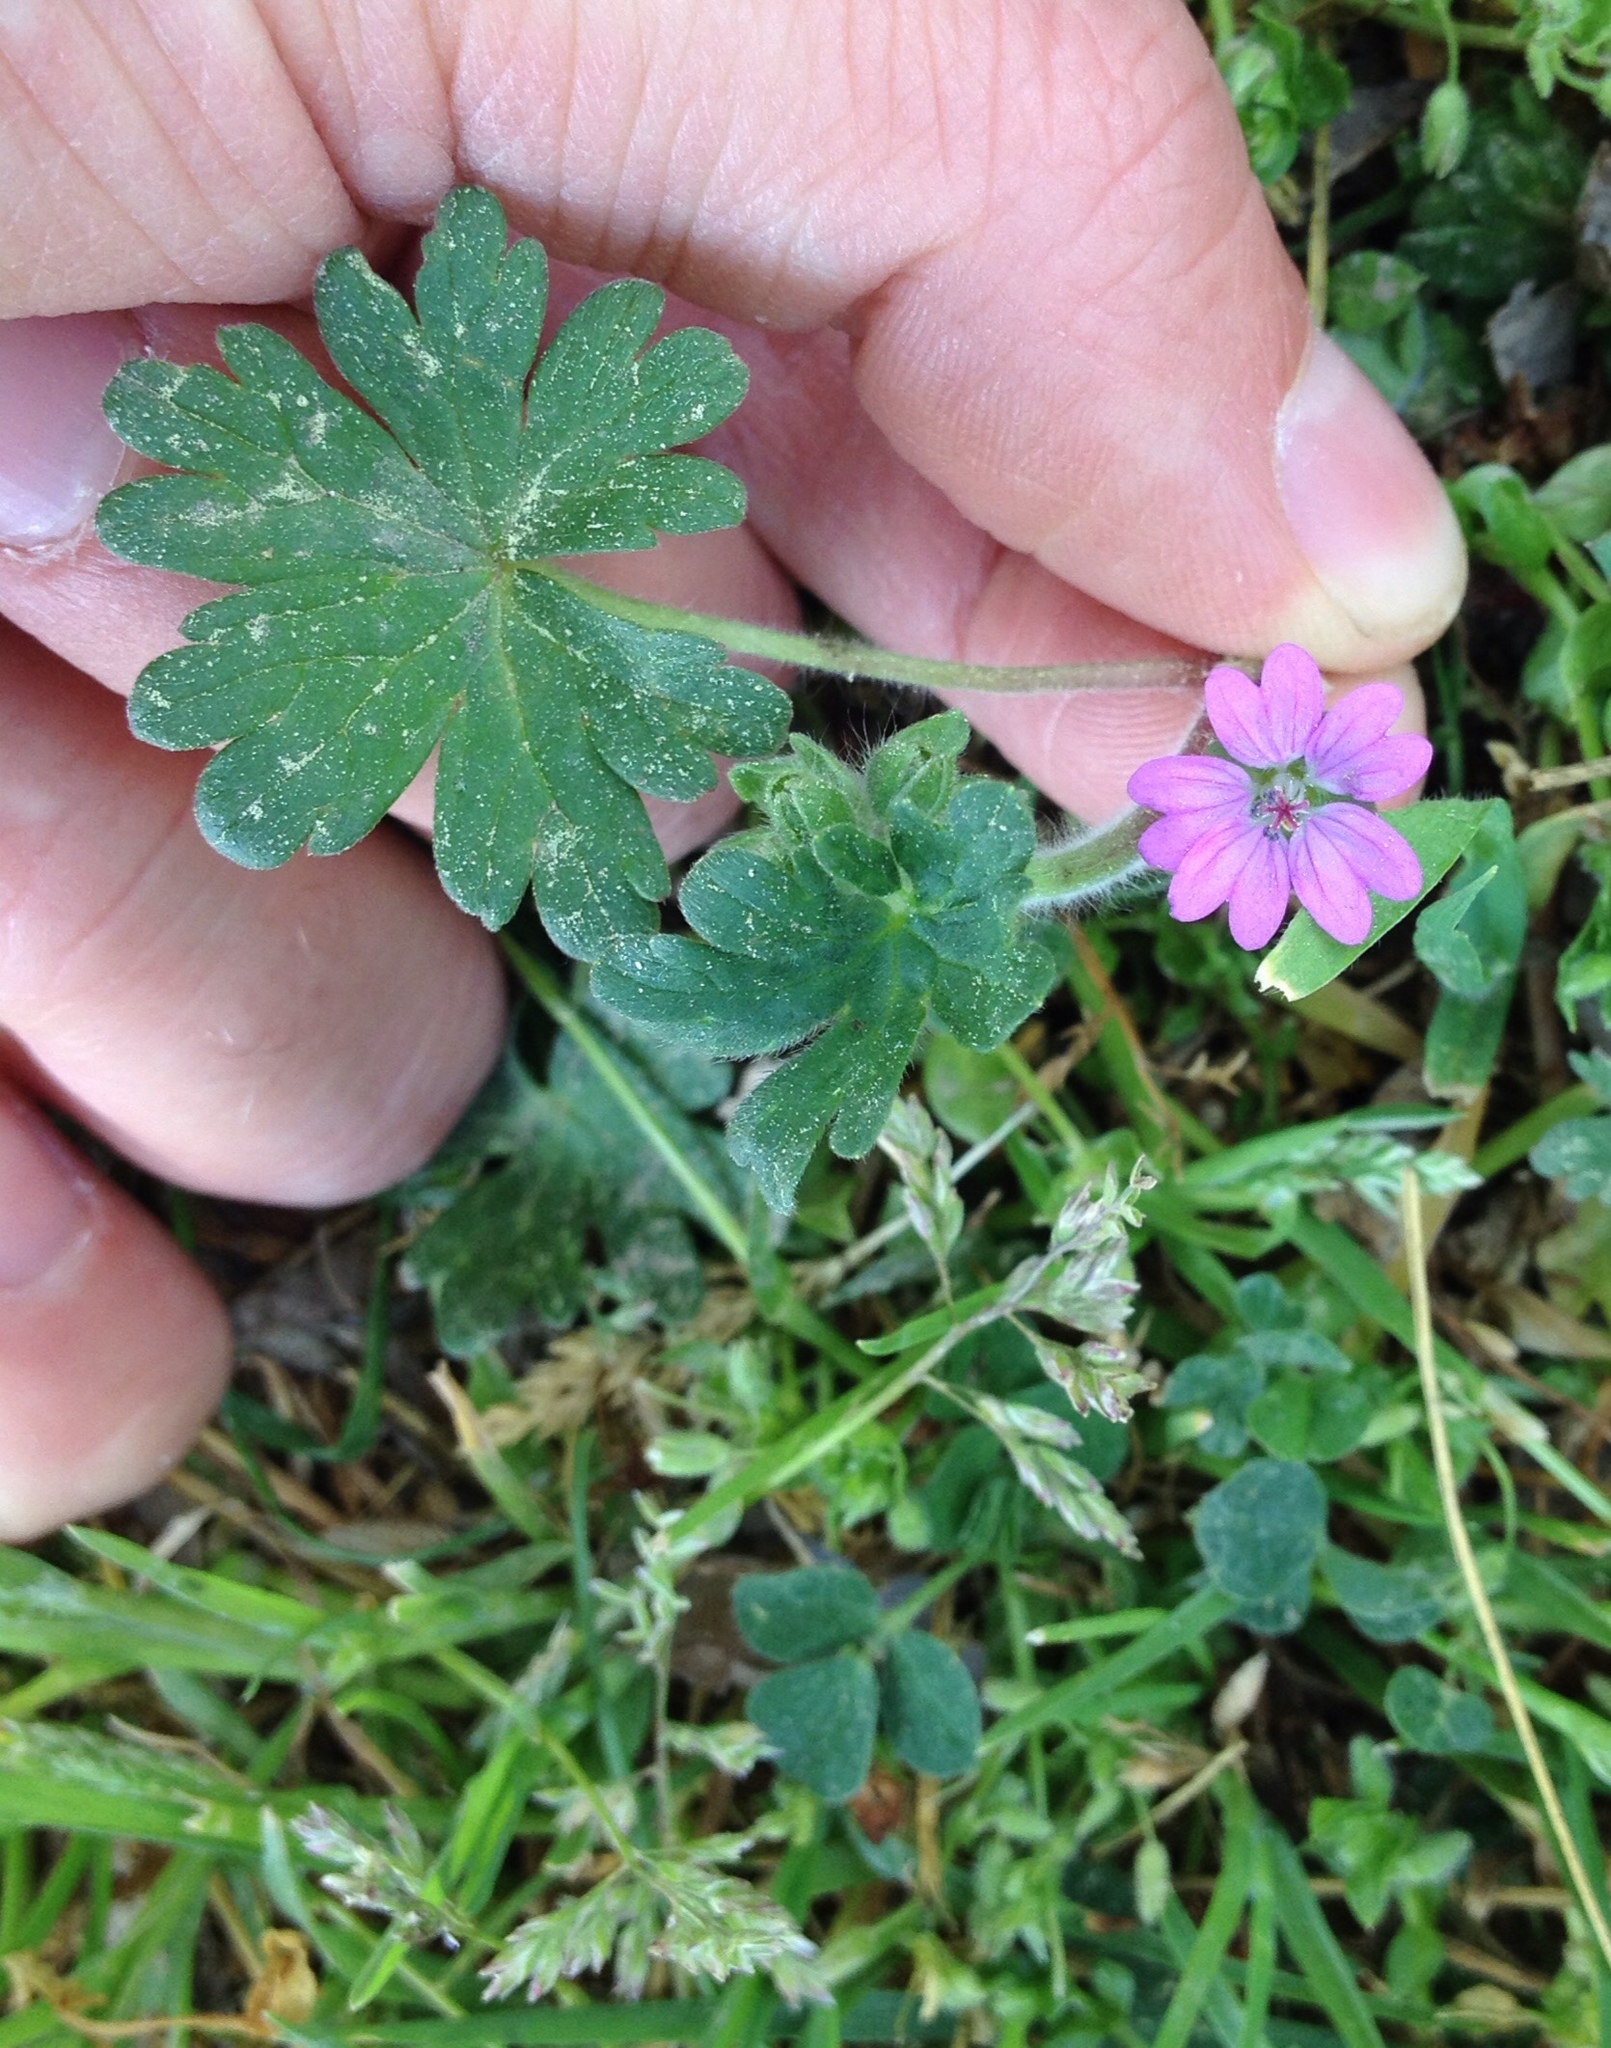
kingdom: Plantae
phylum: Tracheophyta
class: Magnoliopsida
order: Geraniales
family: Geraniaceae
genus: Geranium
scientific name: Geranium molle
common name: Dove's-foot crane's-bill
